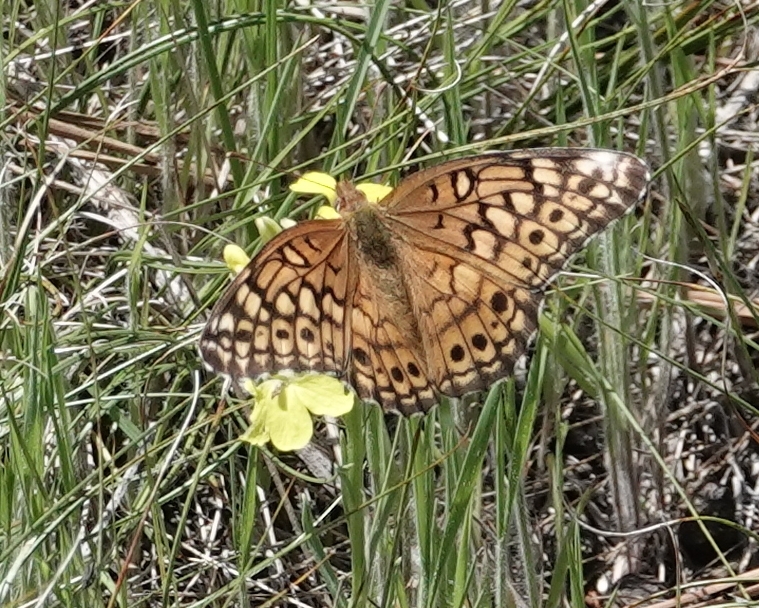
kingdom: Animalia
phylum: Arthropoda
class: Insecta
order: Lepidoptera
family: Nymphalidae
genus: Euptoieta
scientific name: Euptoieta claudia
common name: Variegated fritillary
